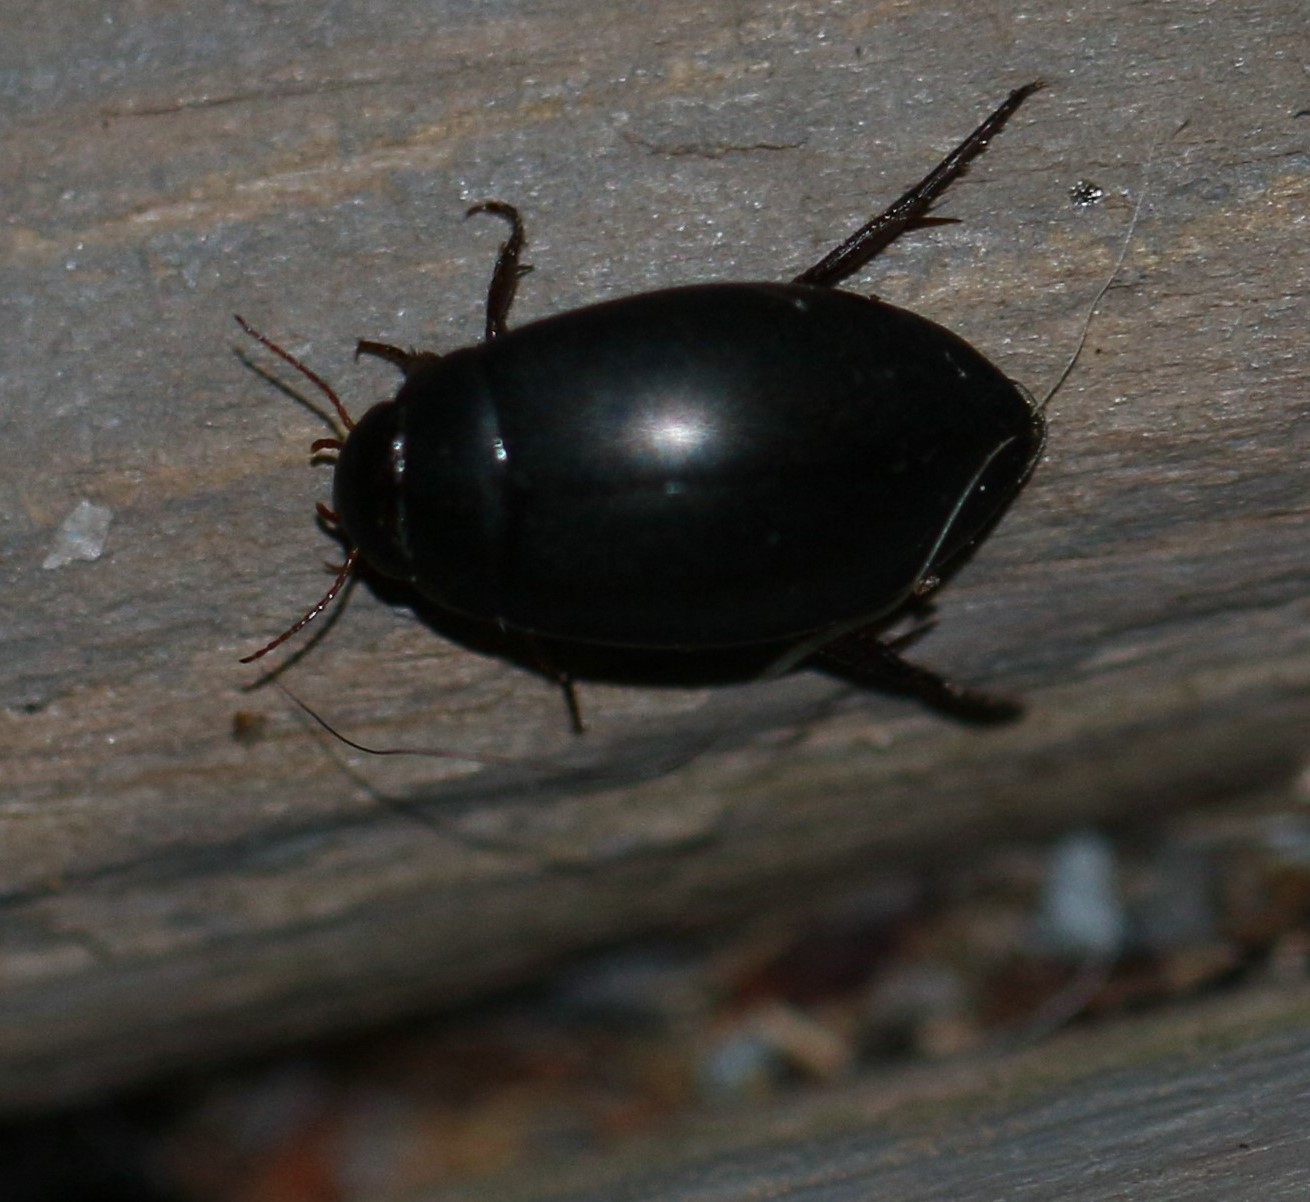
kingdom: Animalia
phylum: Arthropoda
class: Insecta
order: Coleoptera
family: Dytiscidae
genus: Ilybius
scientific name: Ilybius
